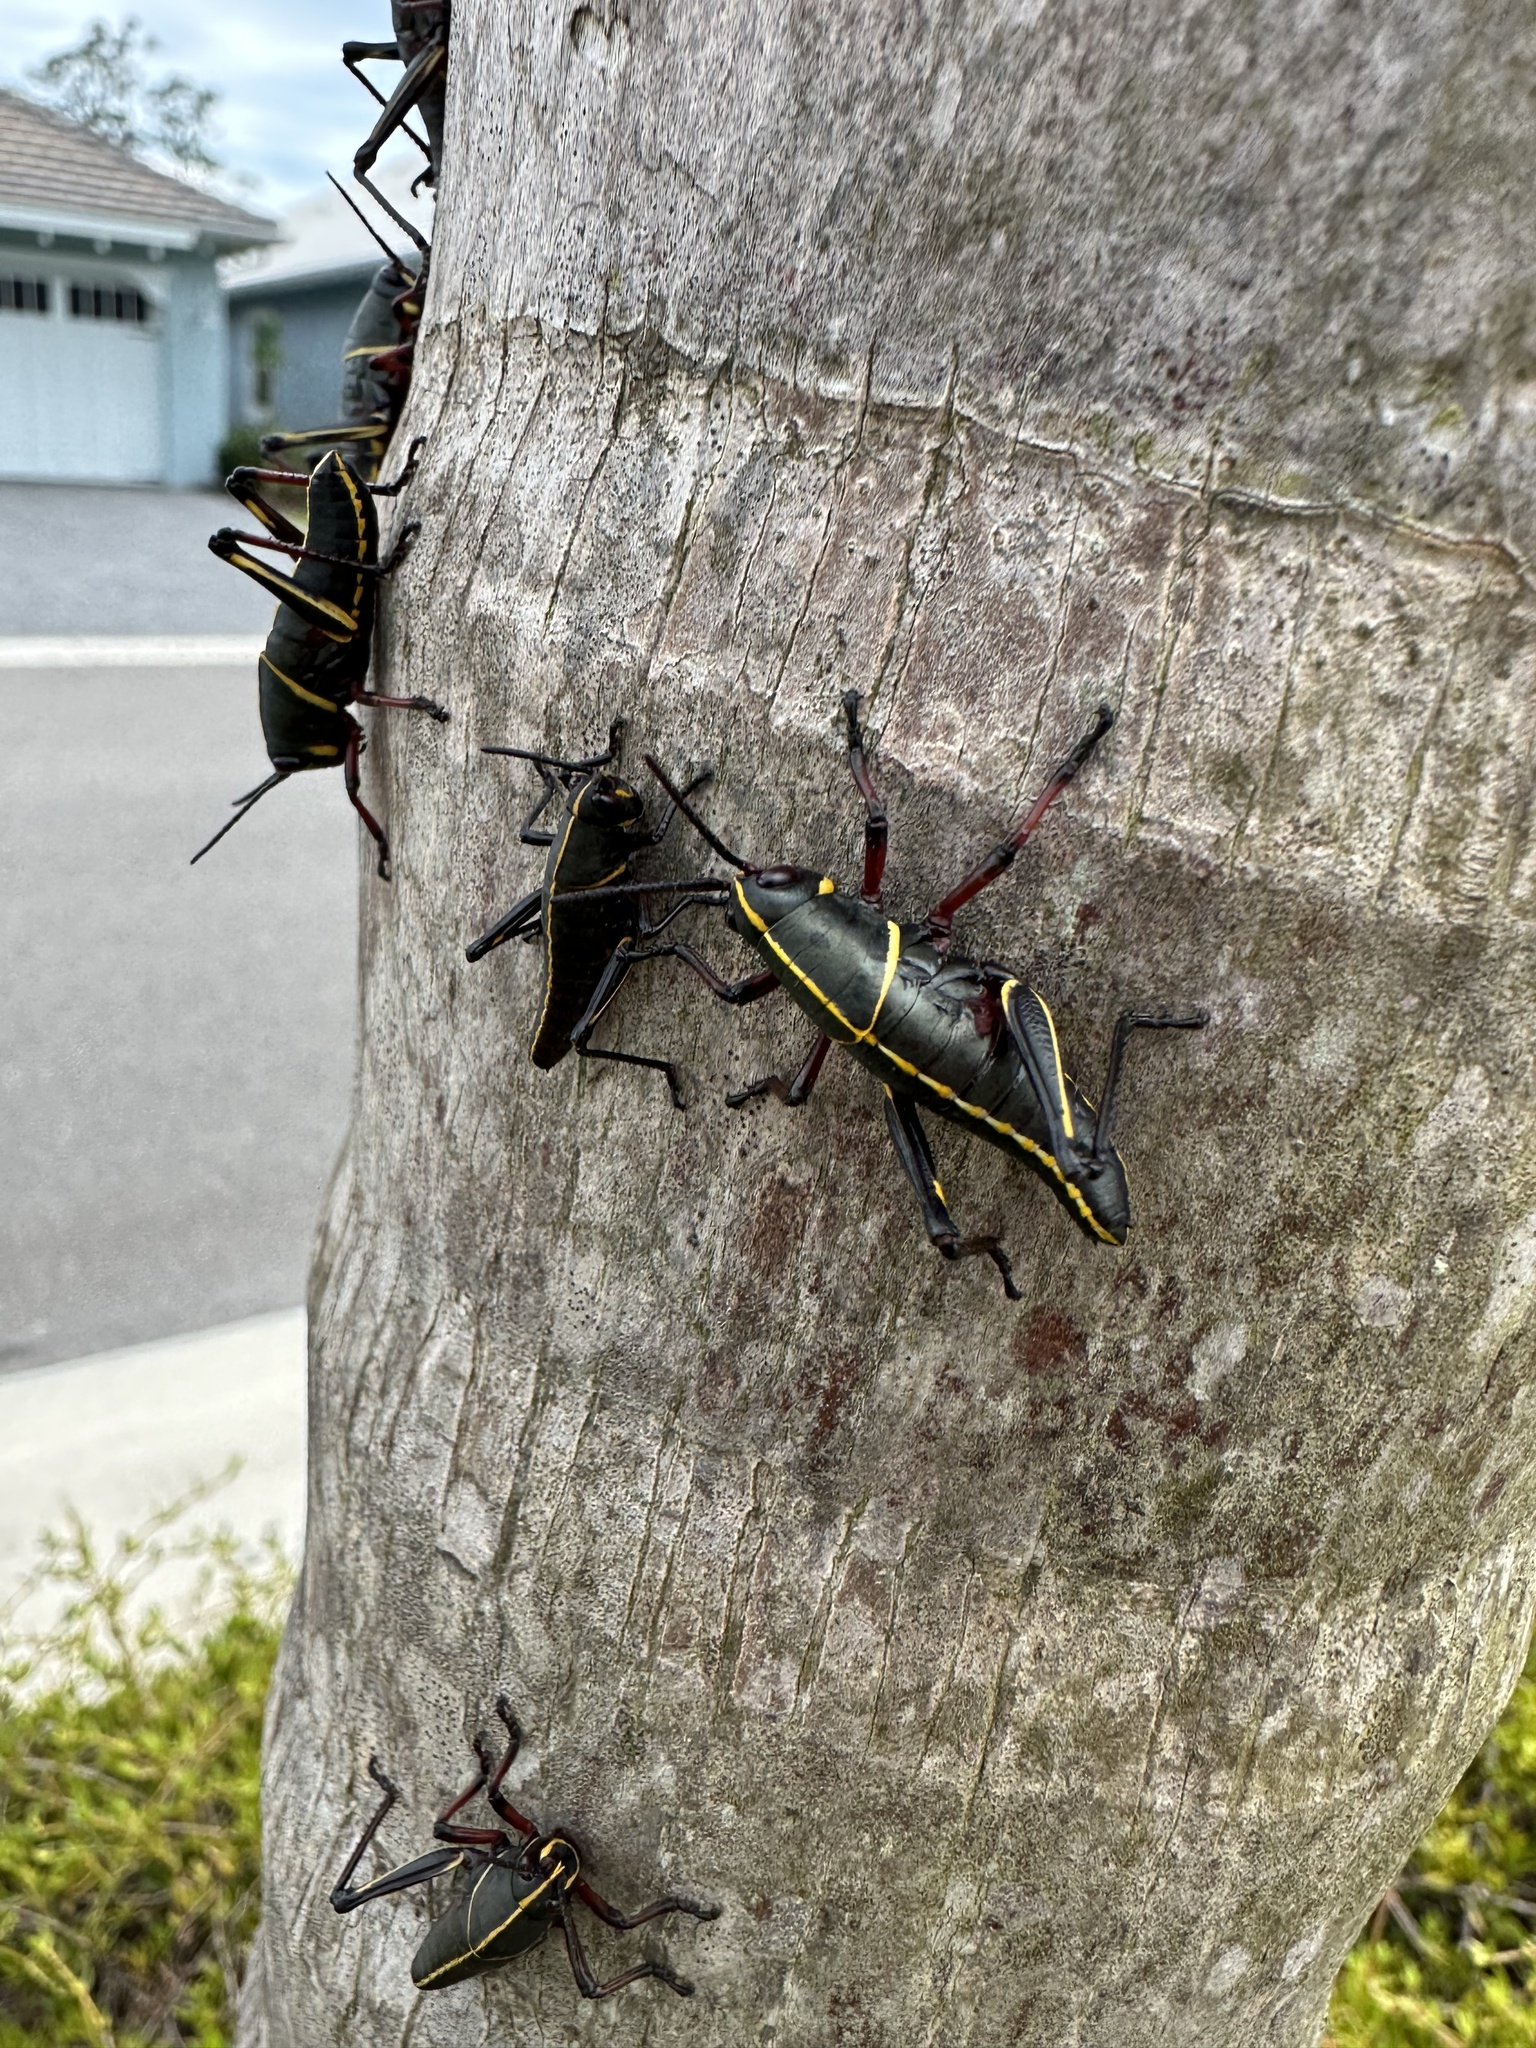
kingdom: Animalia
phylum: Arthropoda
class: Insecta
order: Orthoptera
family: Romaleidae
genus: Romalea
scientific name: Romalea microptera
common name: Eastern lubber grasshopper
